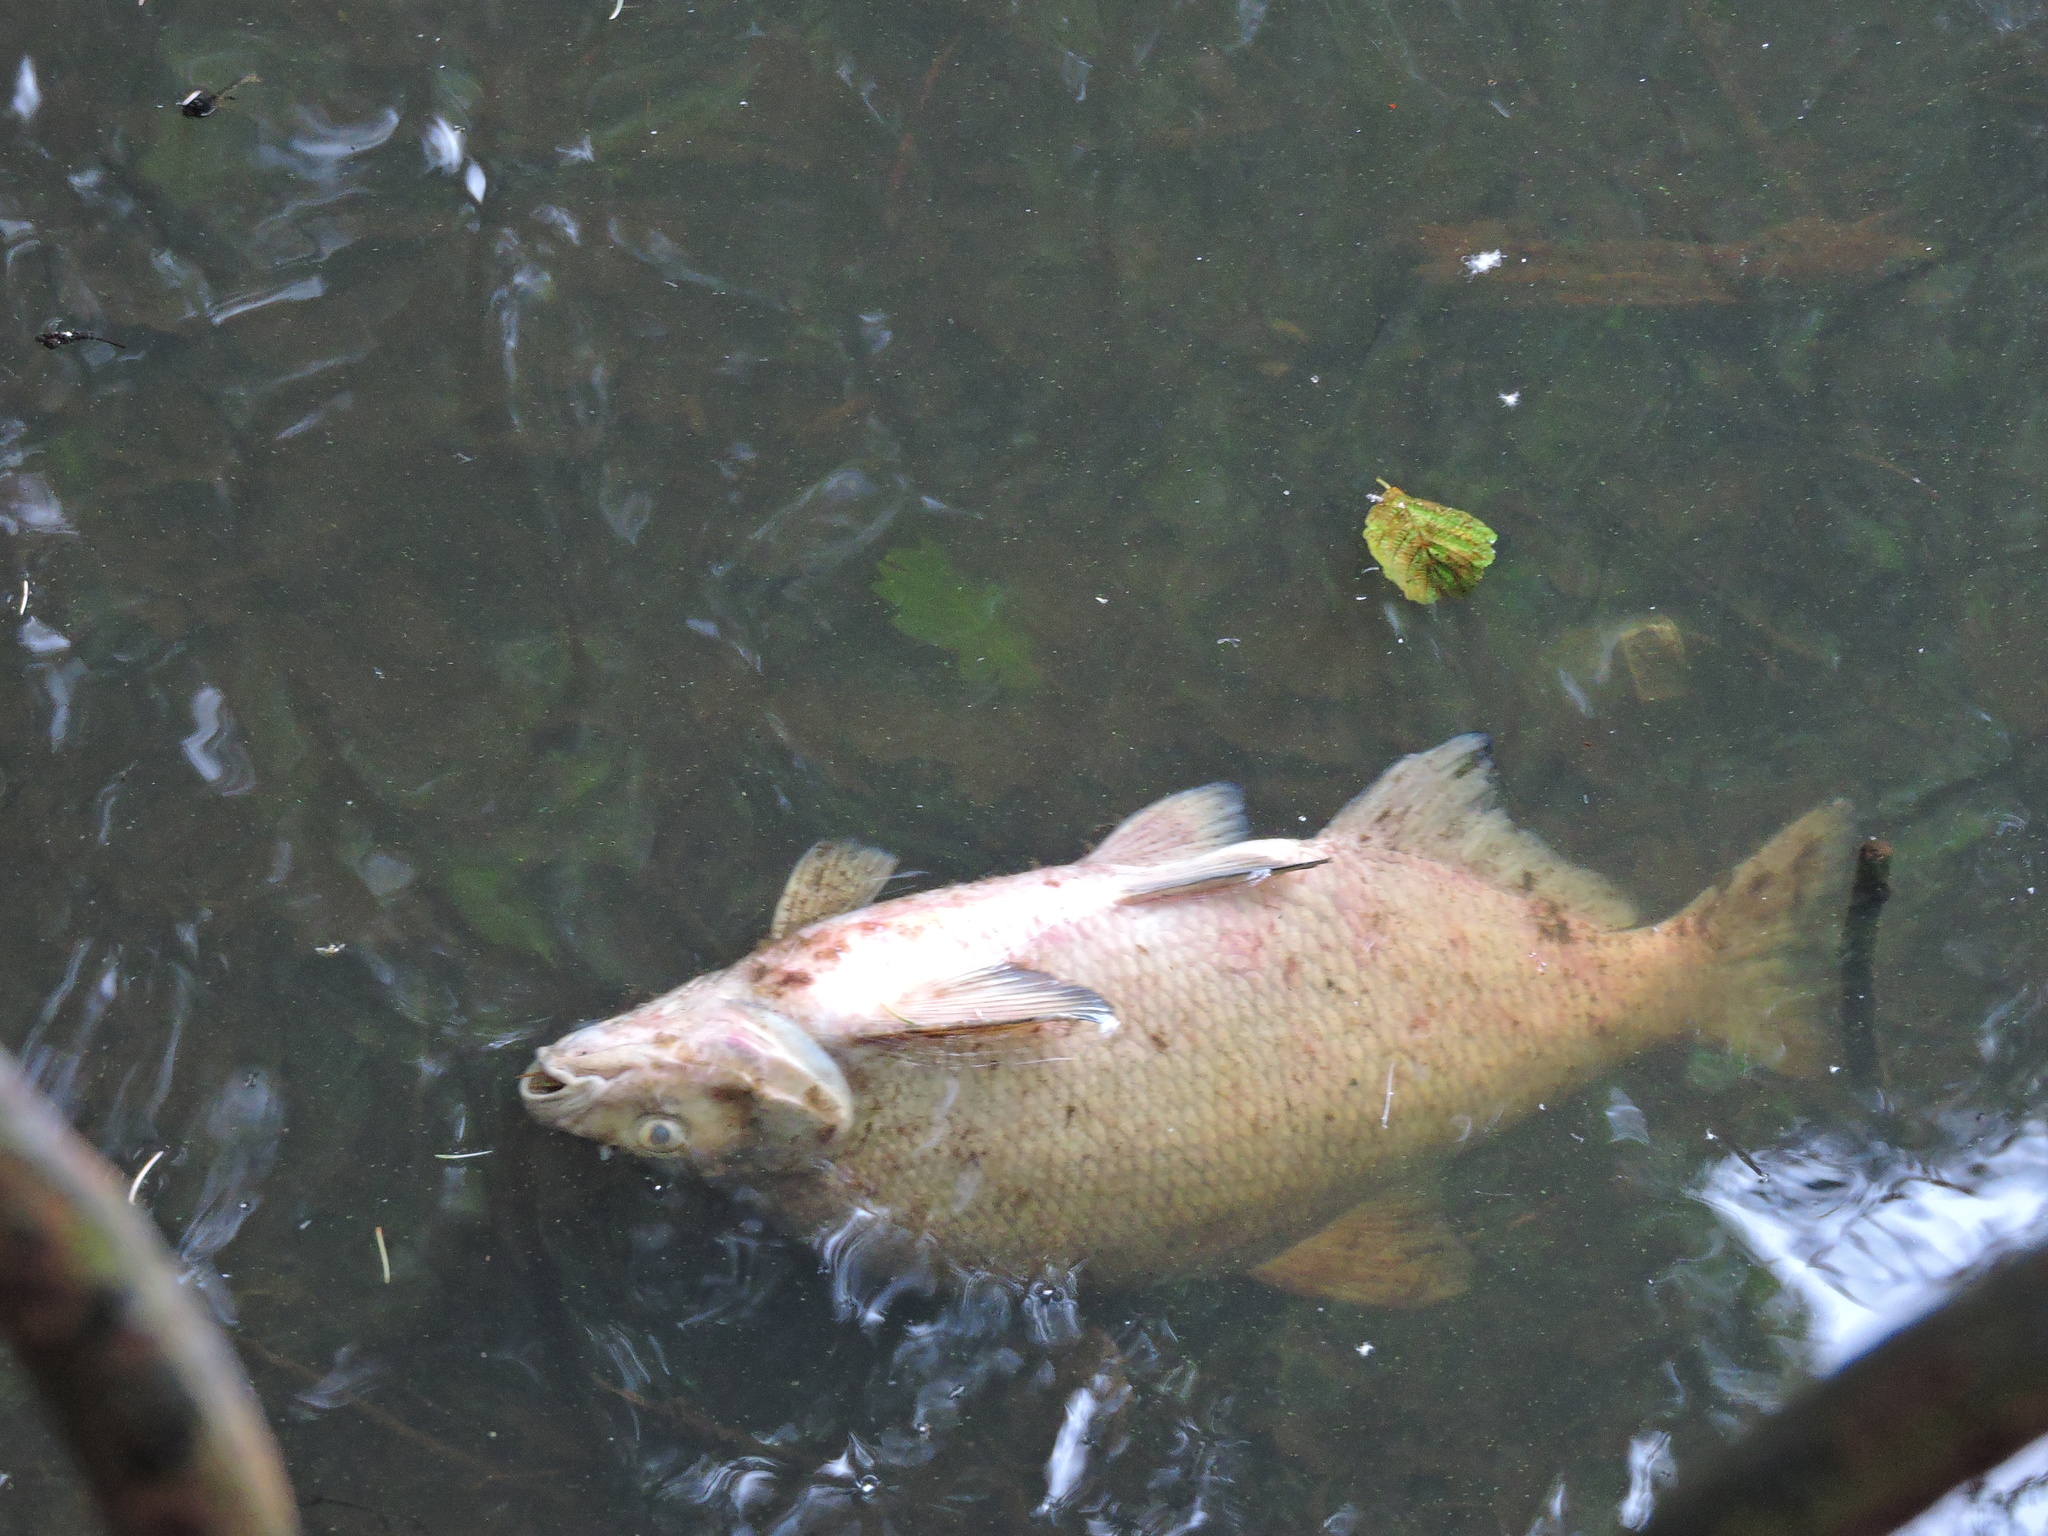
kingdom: Animalia
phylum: Chordata
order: Cypriniformes
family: Cyprinidae
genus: Abramis
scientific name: Abramis brama
